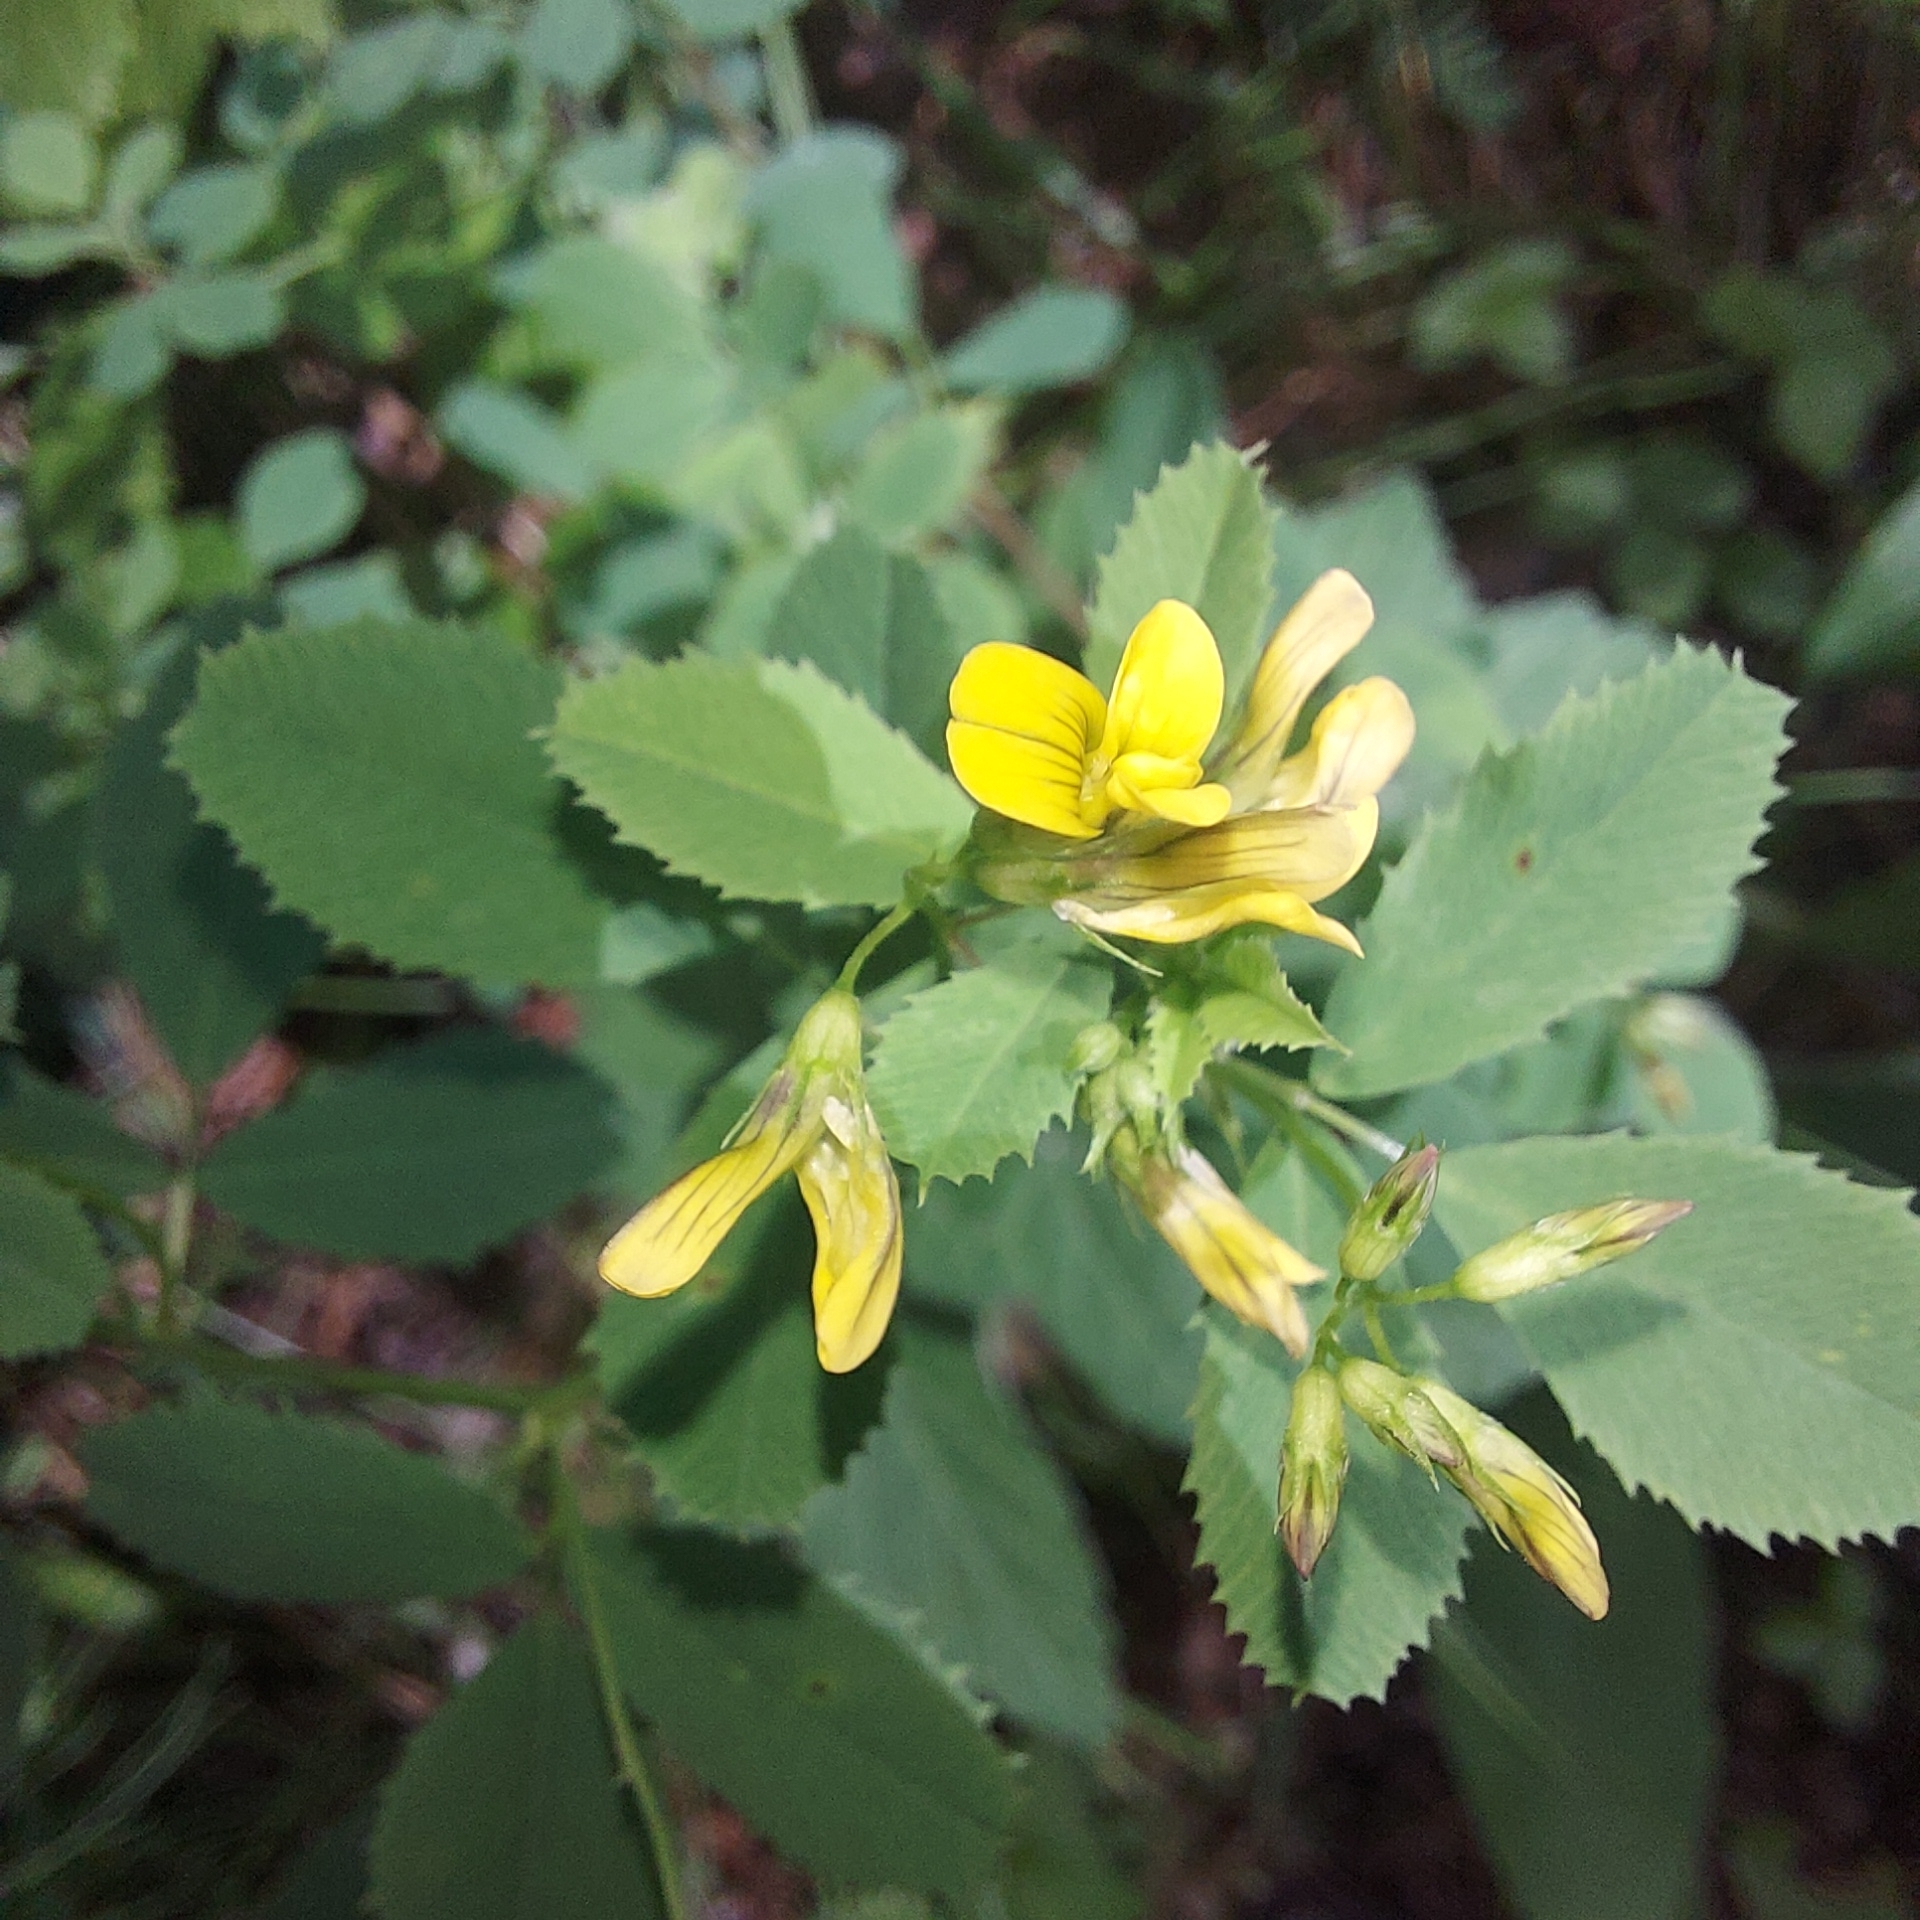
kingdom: Plantae
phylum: Tracheophyta
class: Magnoliopsida
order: Fabales
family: Fabaceae
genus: Medicago
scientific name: Medicago platycarpos
